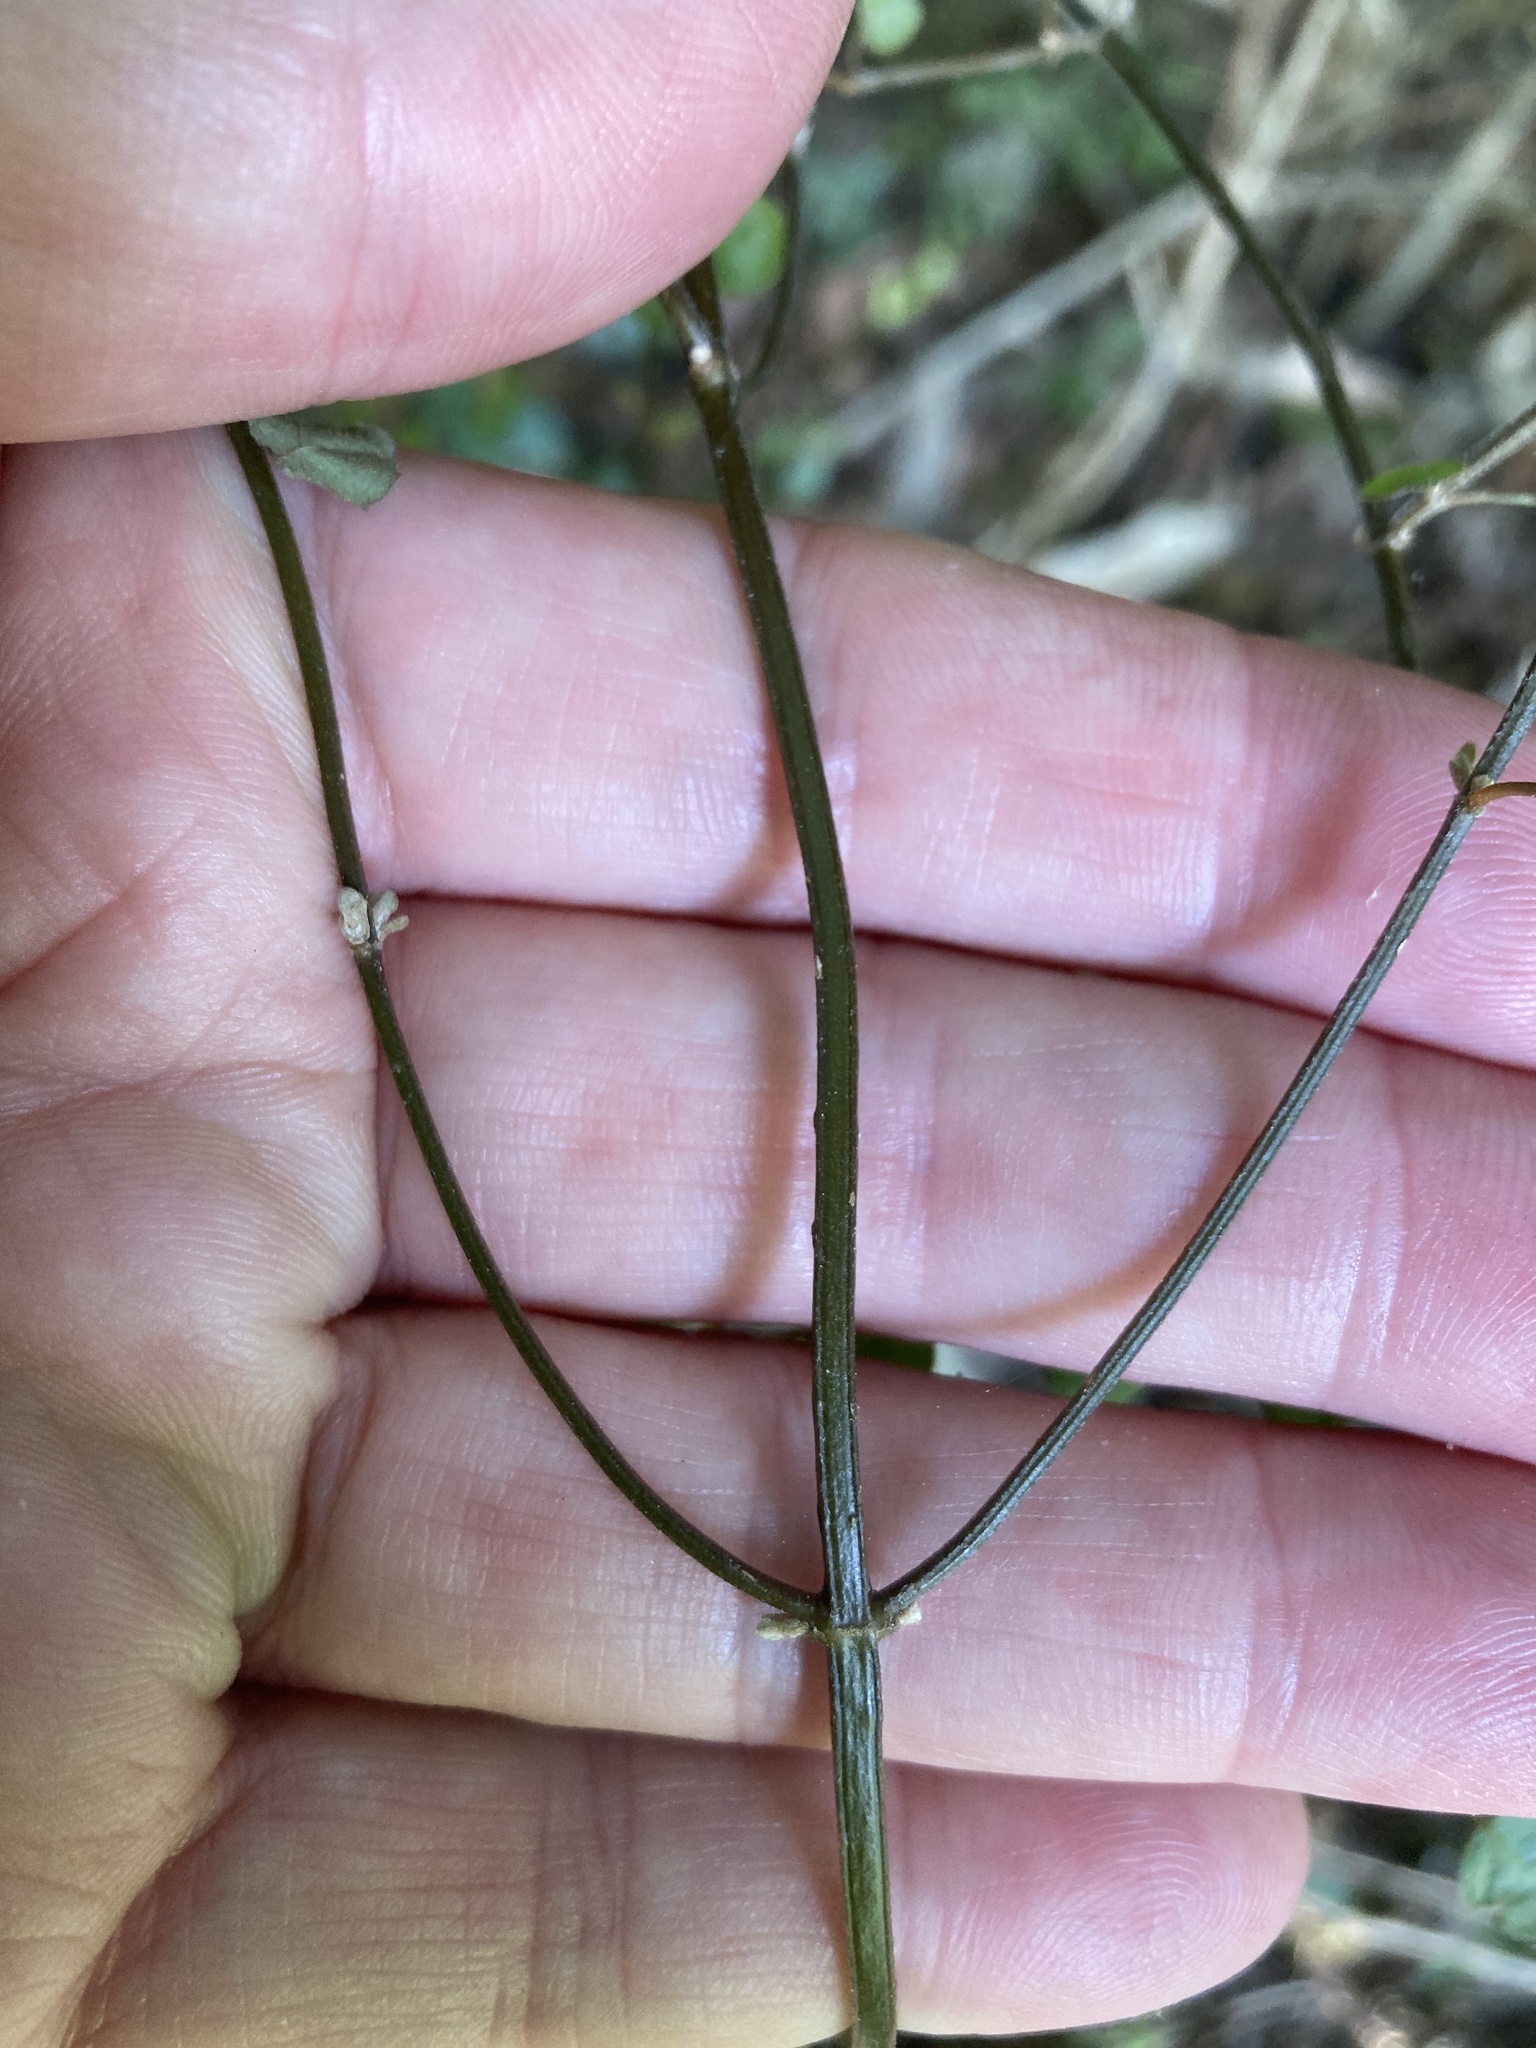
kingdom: Plantae
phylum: Tracheophyta
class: Magnoliopsida
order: Lamiales
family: Lamiaceae
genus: Teucrium
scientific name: Teucrium parvifolium
